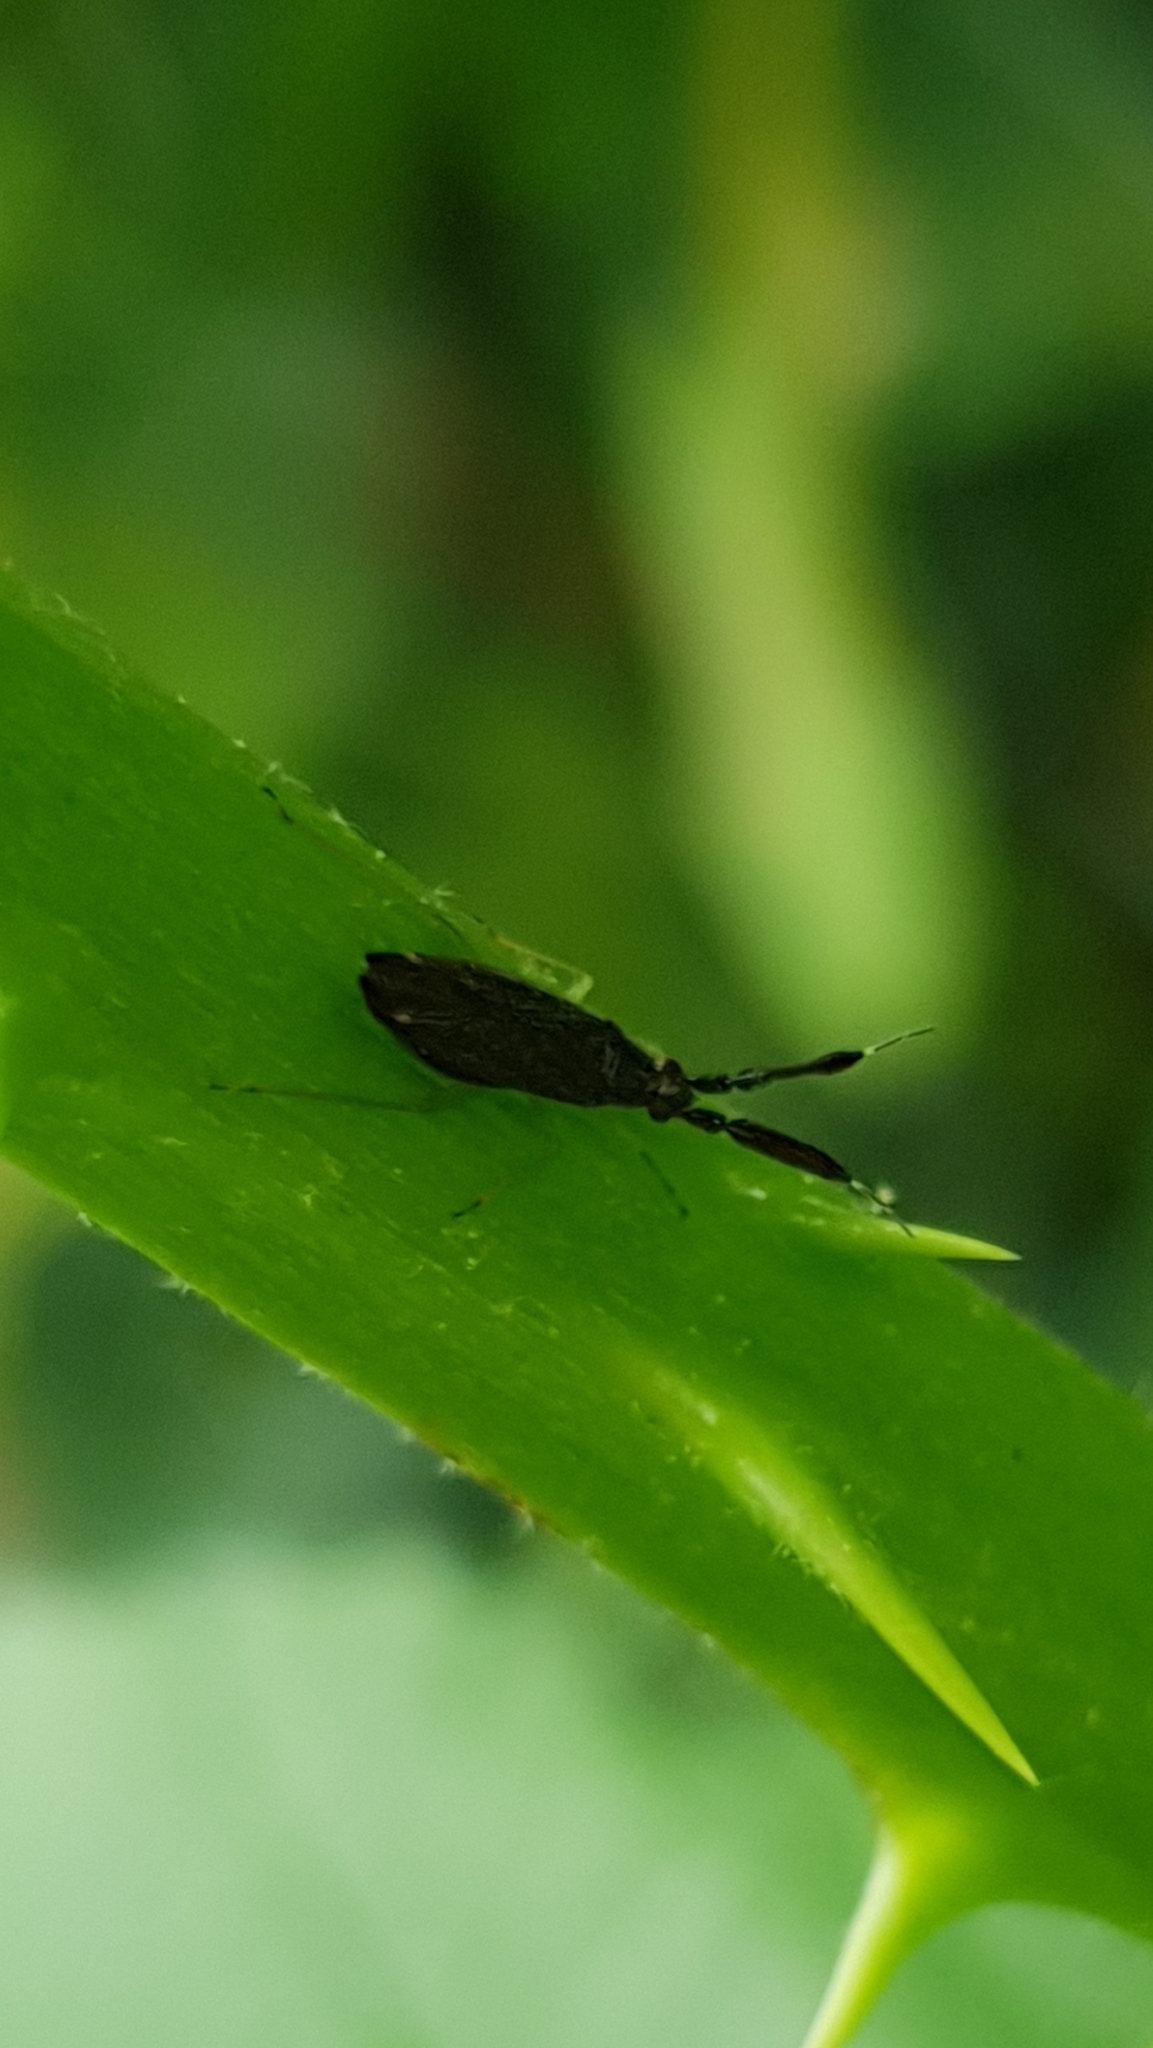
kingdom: Animalia
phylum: Arthropoda
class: Insecta
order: Hemiptera
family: Miridae
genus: Heterotoma
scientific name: Heterotoma planicornis
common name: Plant bug
